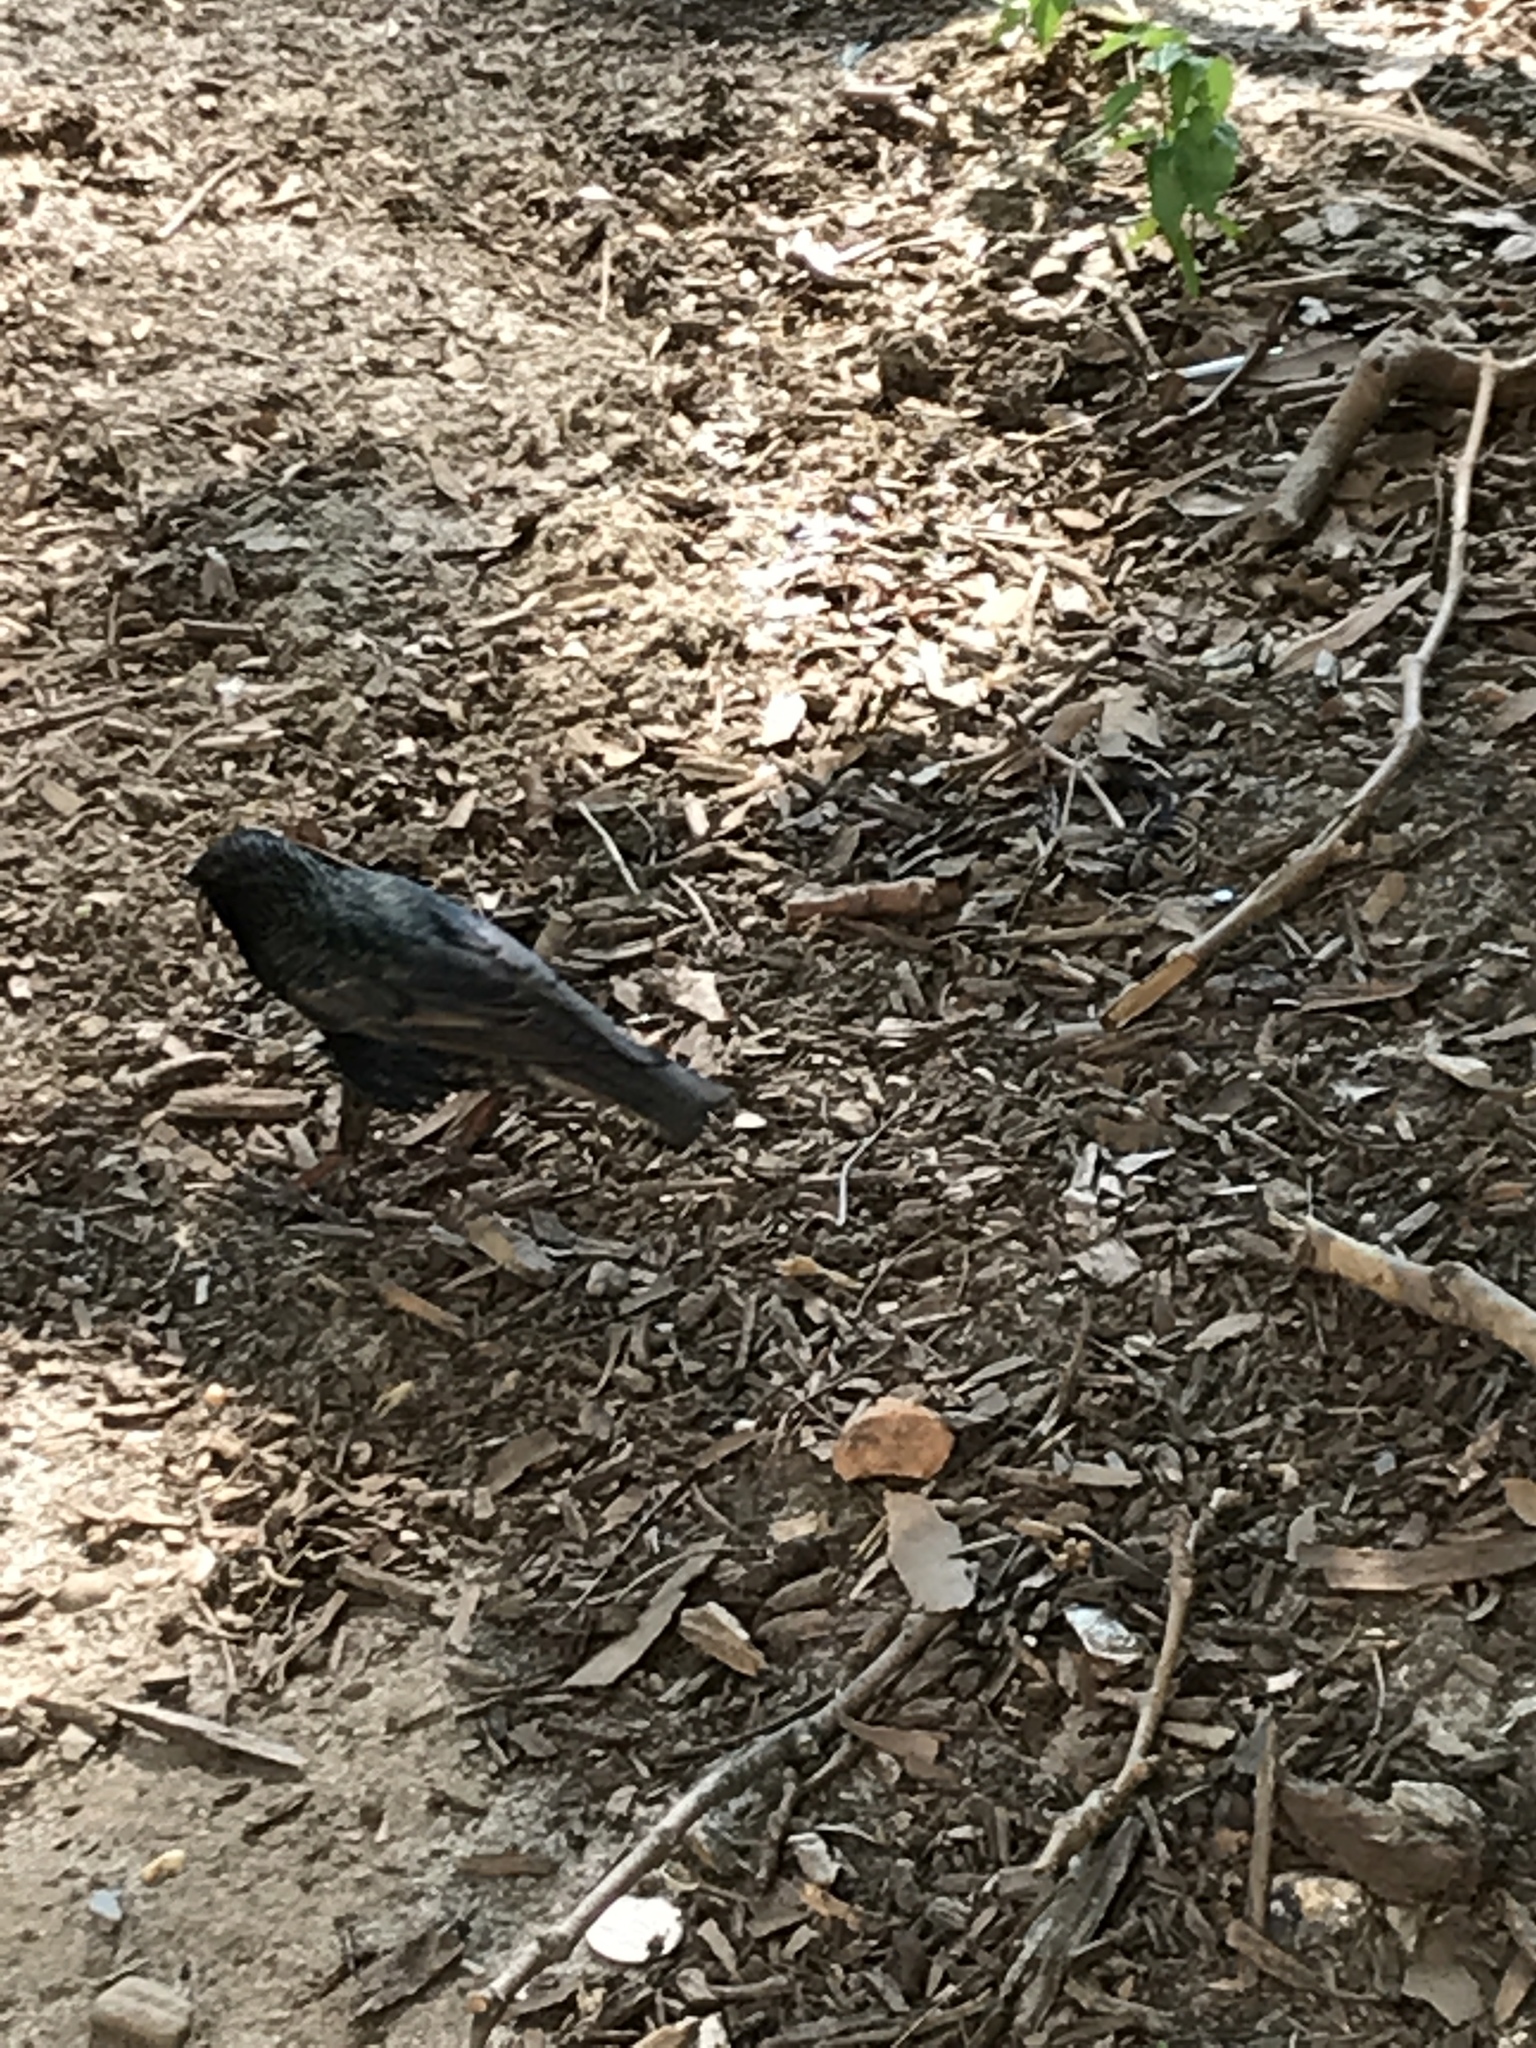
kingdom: Animalia
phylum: Chordata
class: Aves
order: Passeriformes
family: Sturnidae
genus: Sturnus
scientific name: Sturnus vulgaris
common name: Common starling
